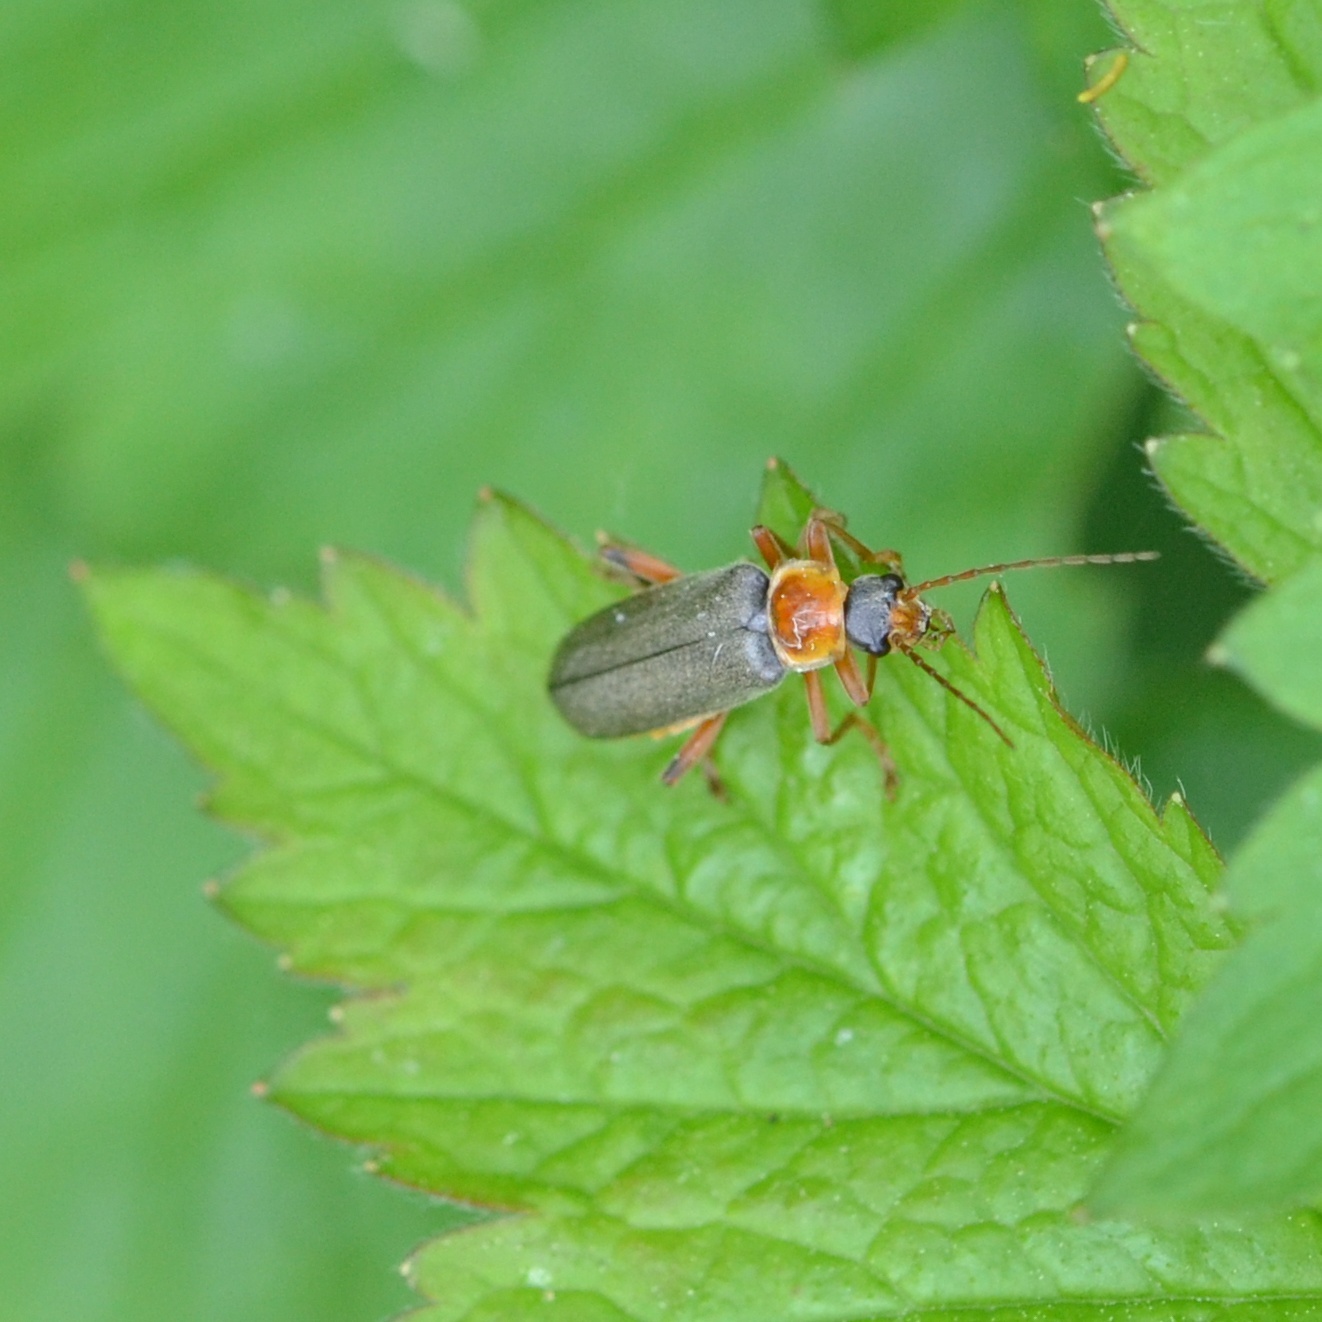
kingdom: Animalia
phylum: Arthropoda
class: Insecta
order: Coleoptera
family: Cantharidae
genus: Cantharis
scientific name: Cantharis pellucida
